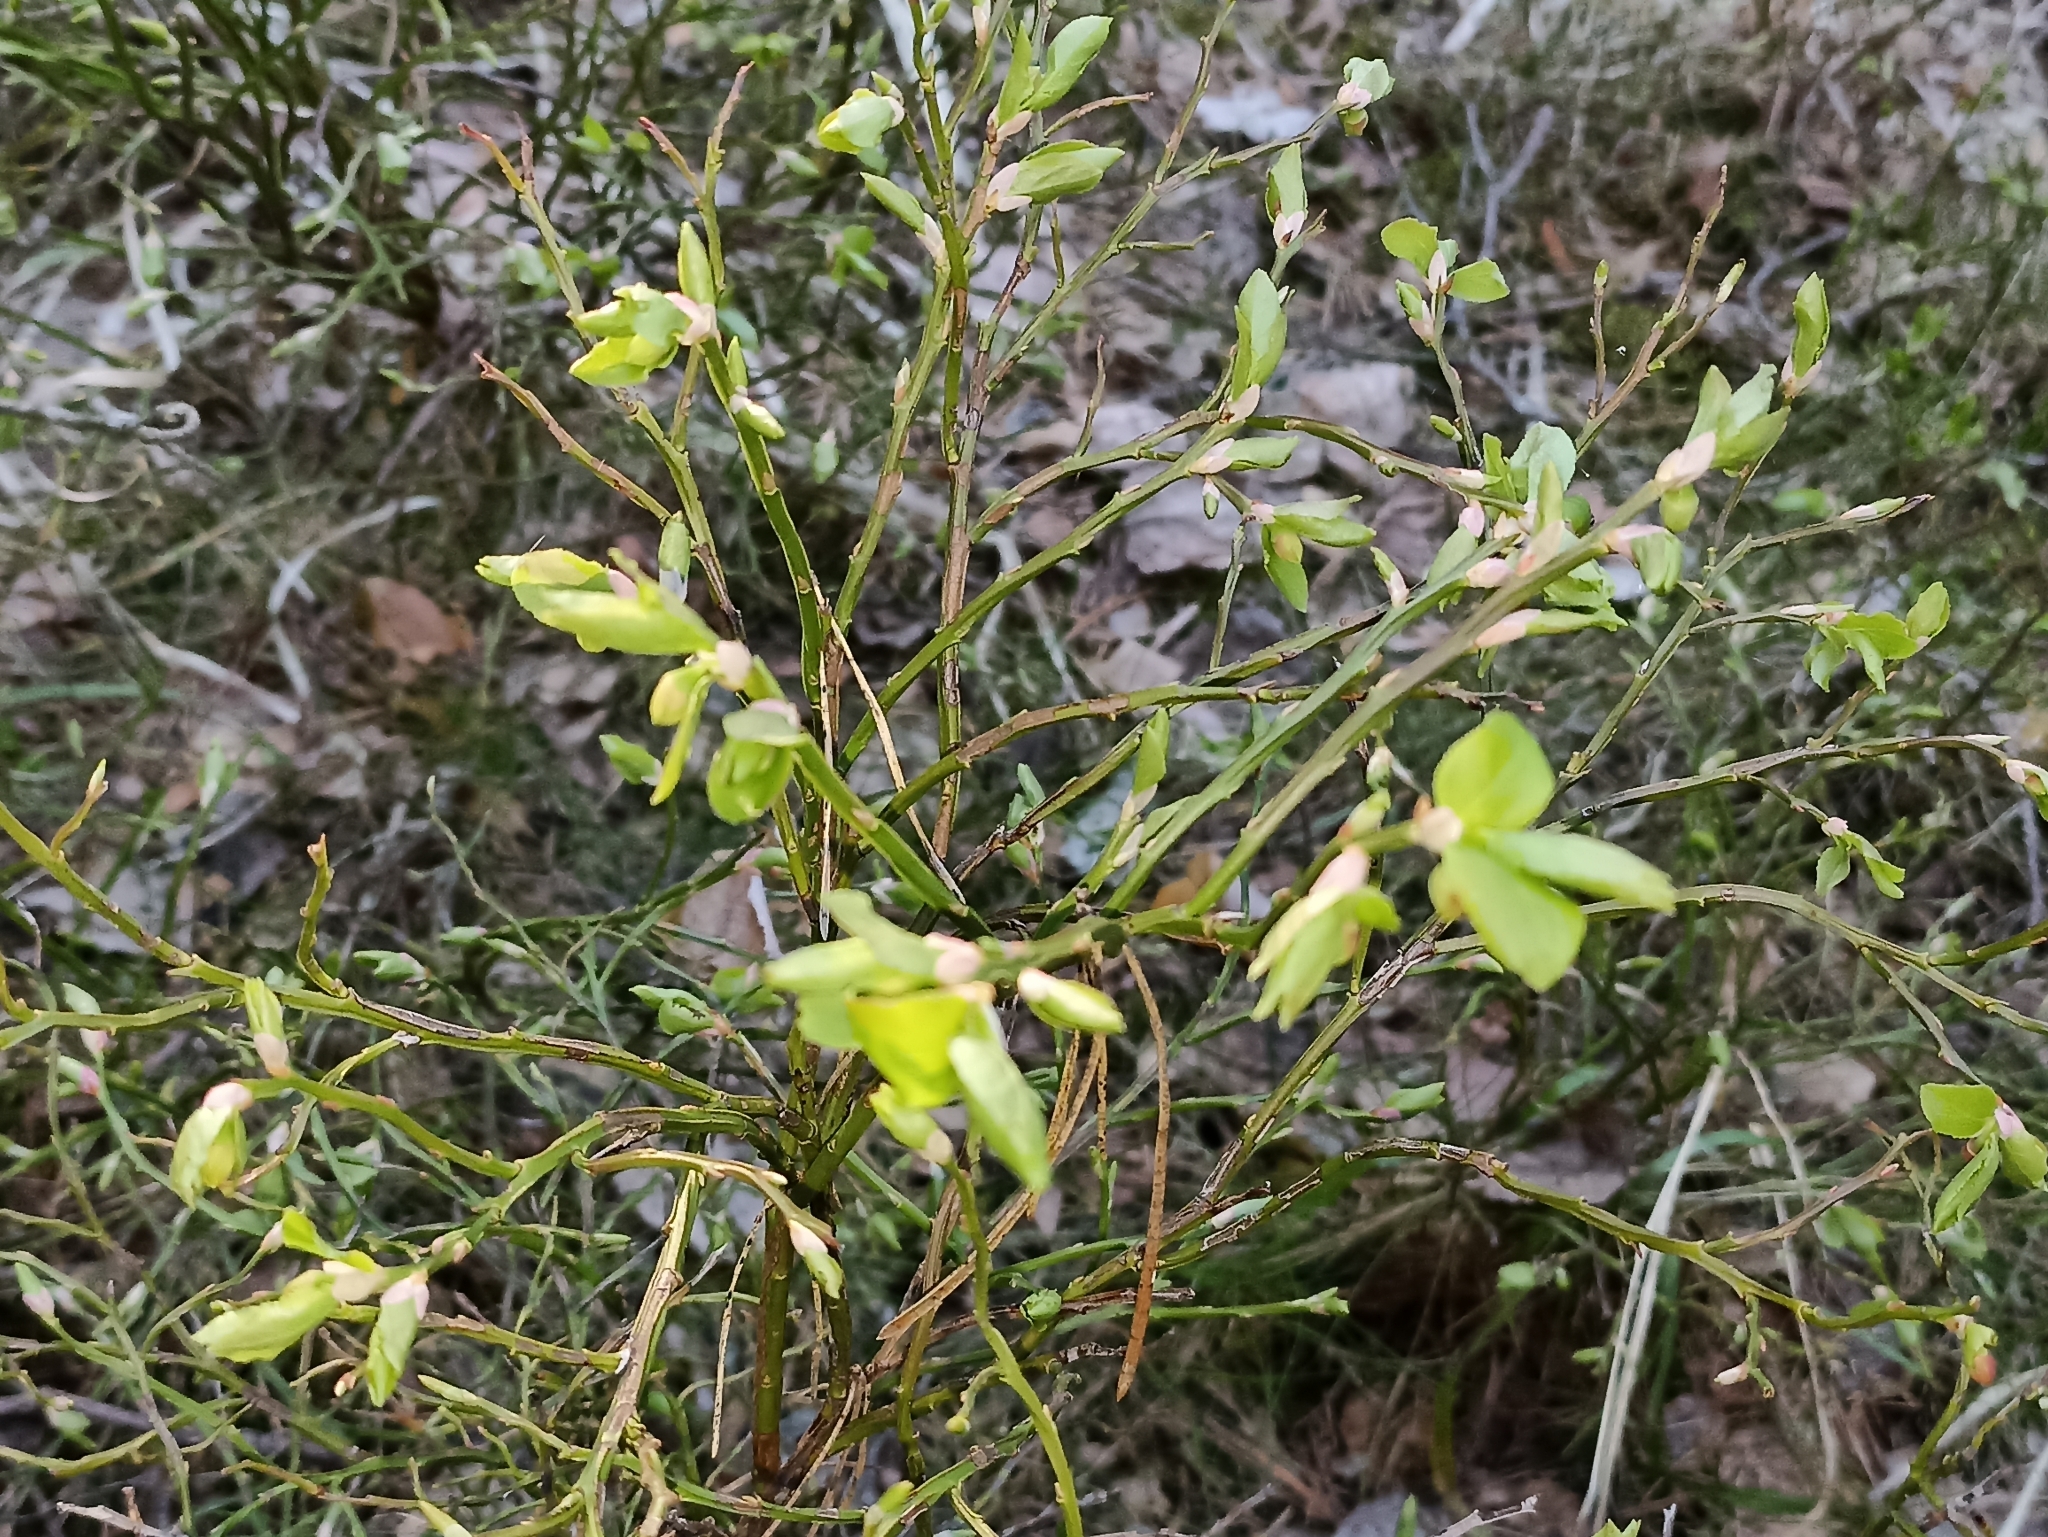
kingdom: Plantae
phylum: Tracheophyta
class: Magnoliopsida
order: Ericales
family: Ericaceae
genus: Vaccinium
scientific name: Vaccinium myrtillus
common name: Bilberry
